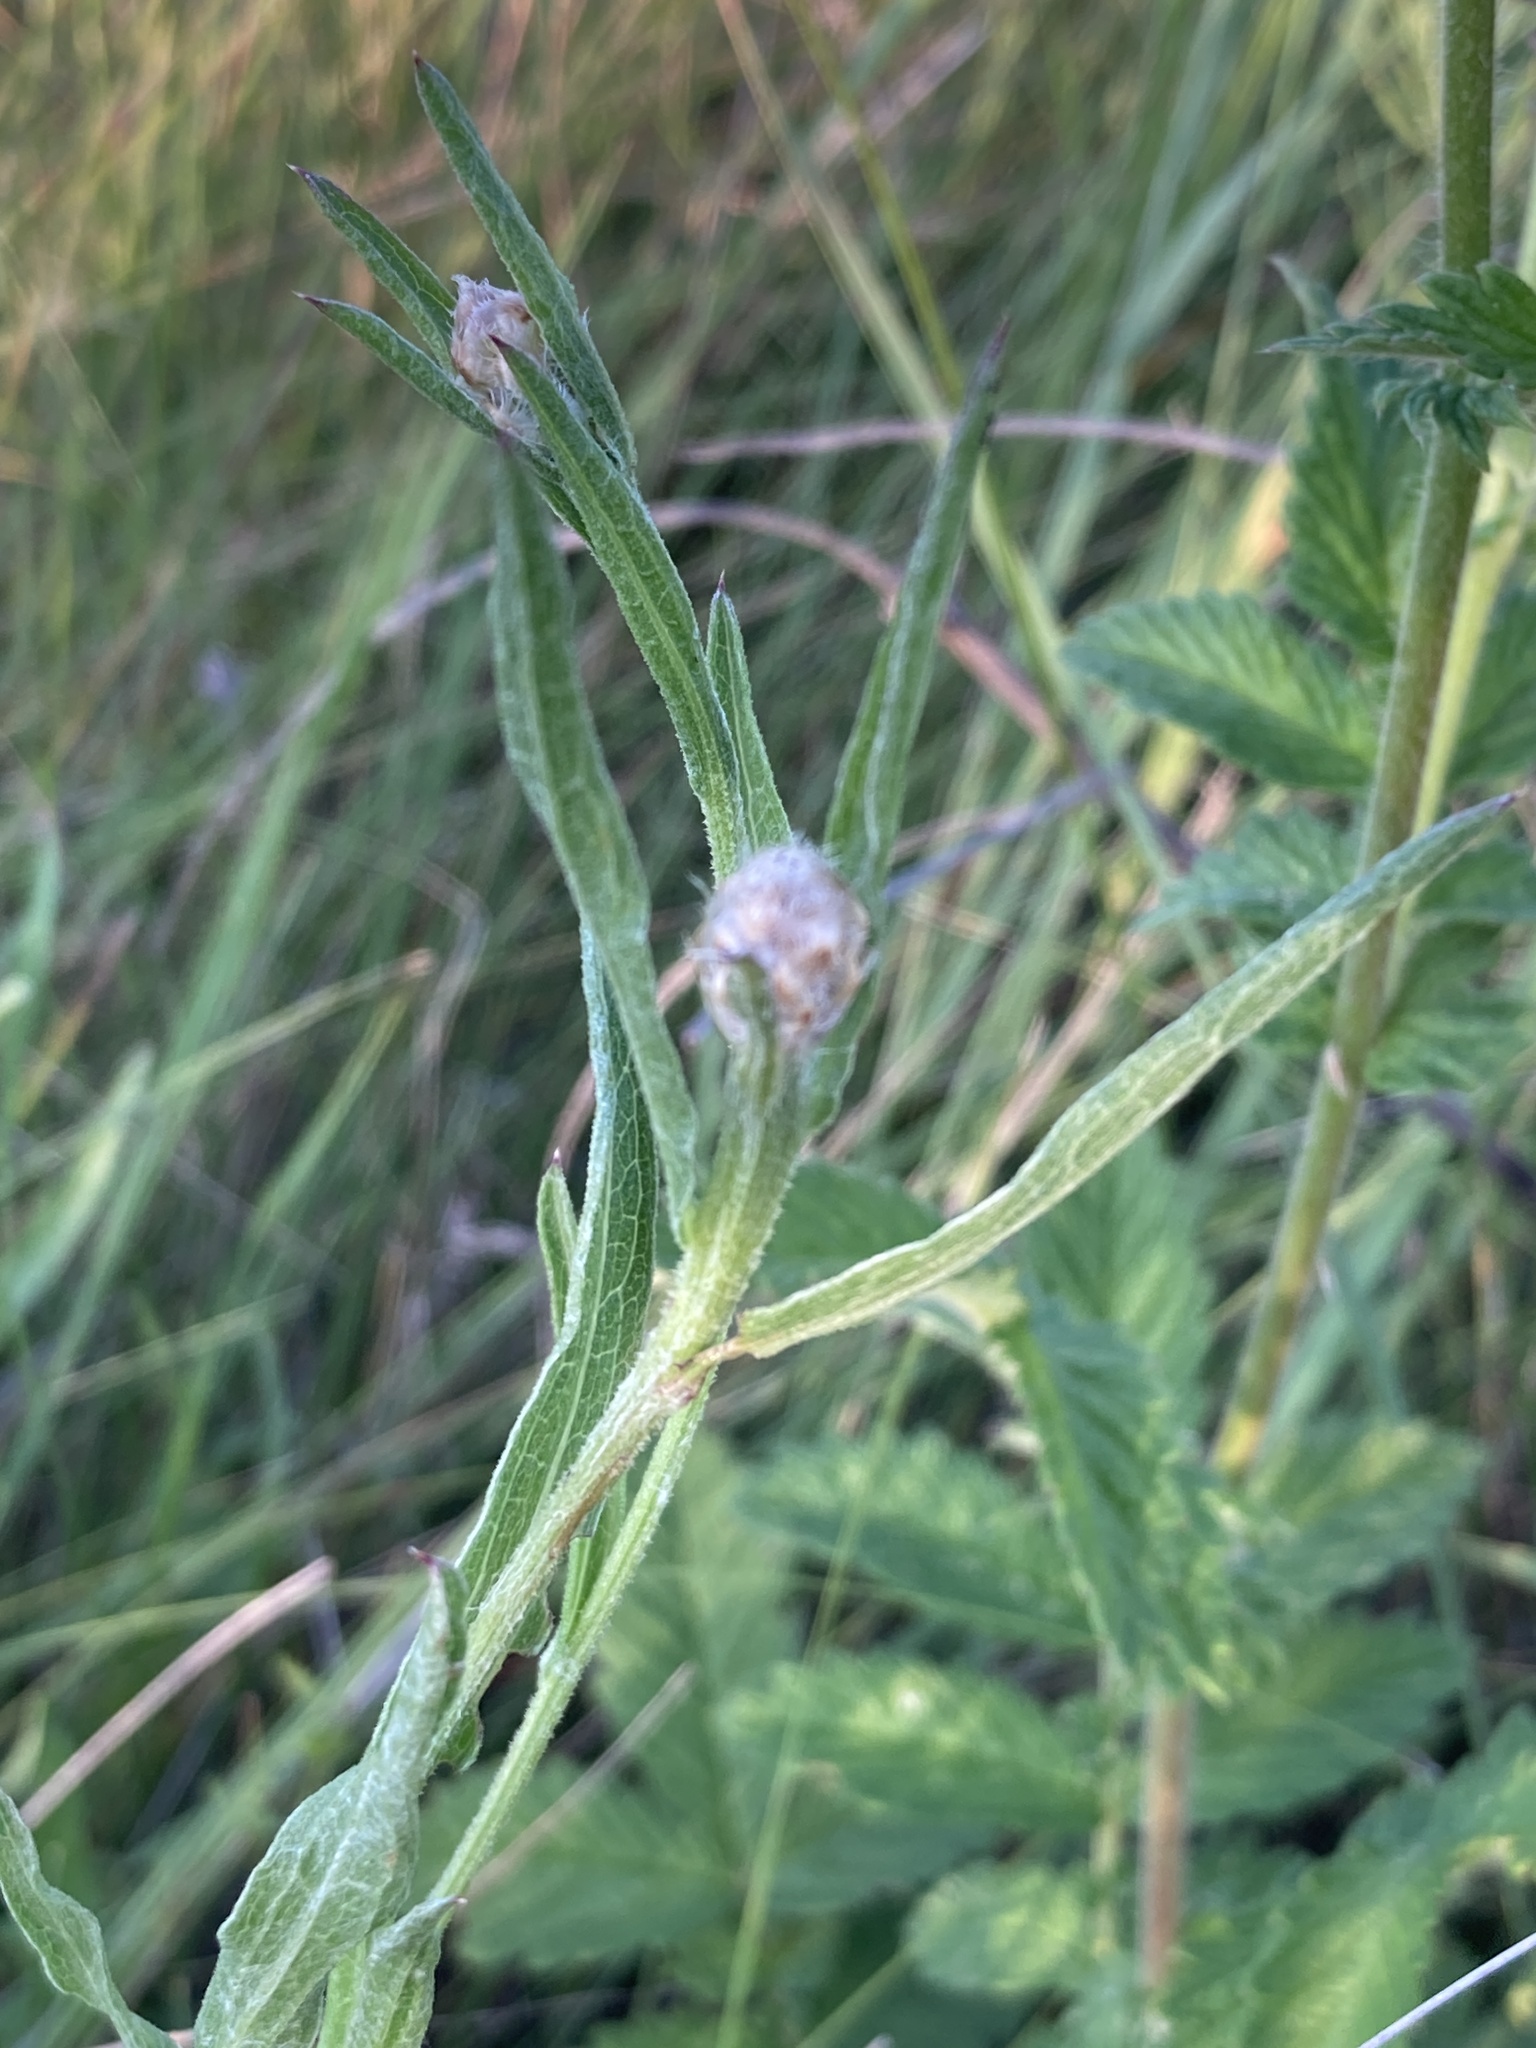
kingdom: Plantae
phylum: Tracheophyta
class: Magnoliopsida
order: Asterales
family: Asteraceae
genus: Centaurea
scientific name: Centaurea jacea
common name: Brown knapweed
